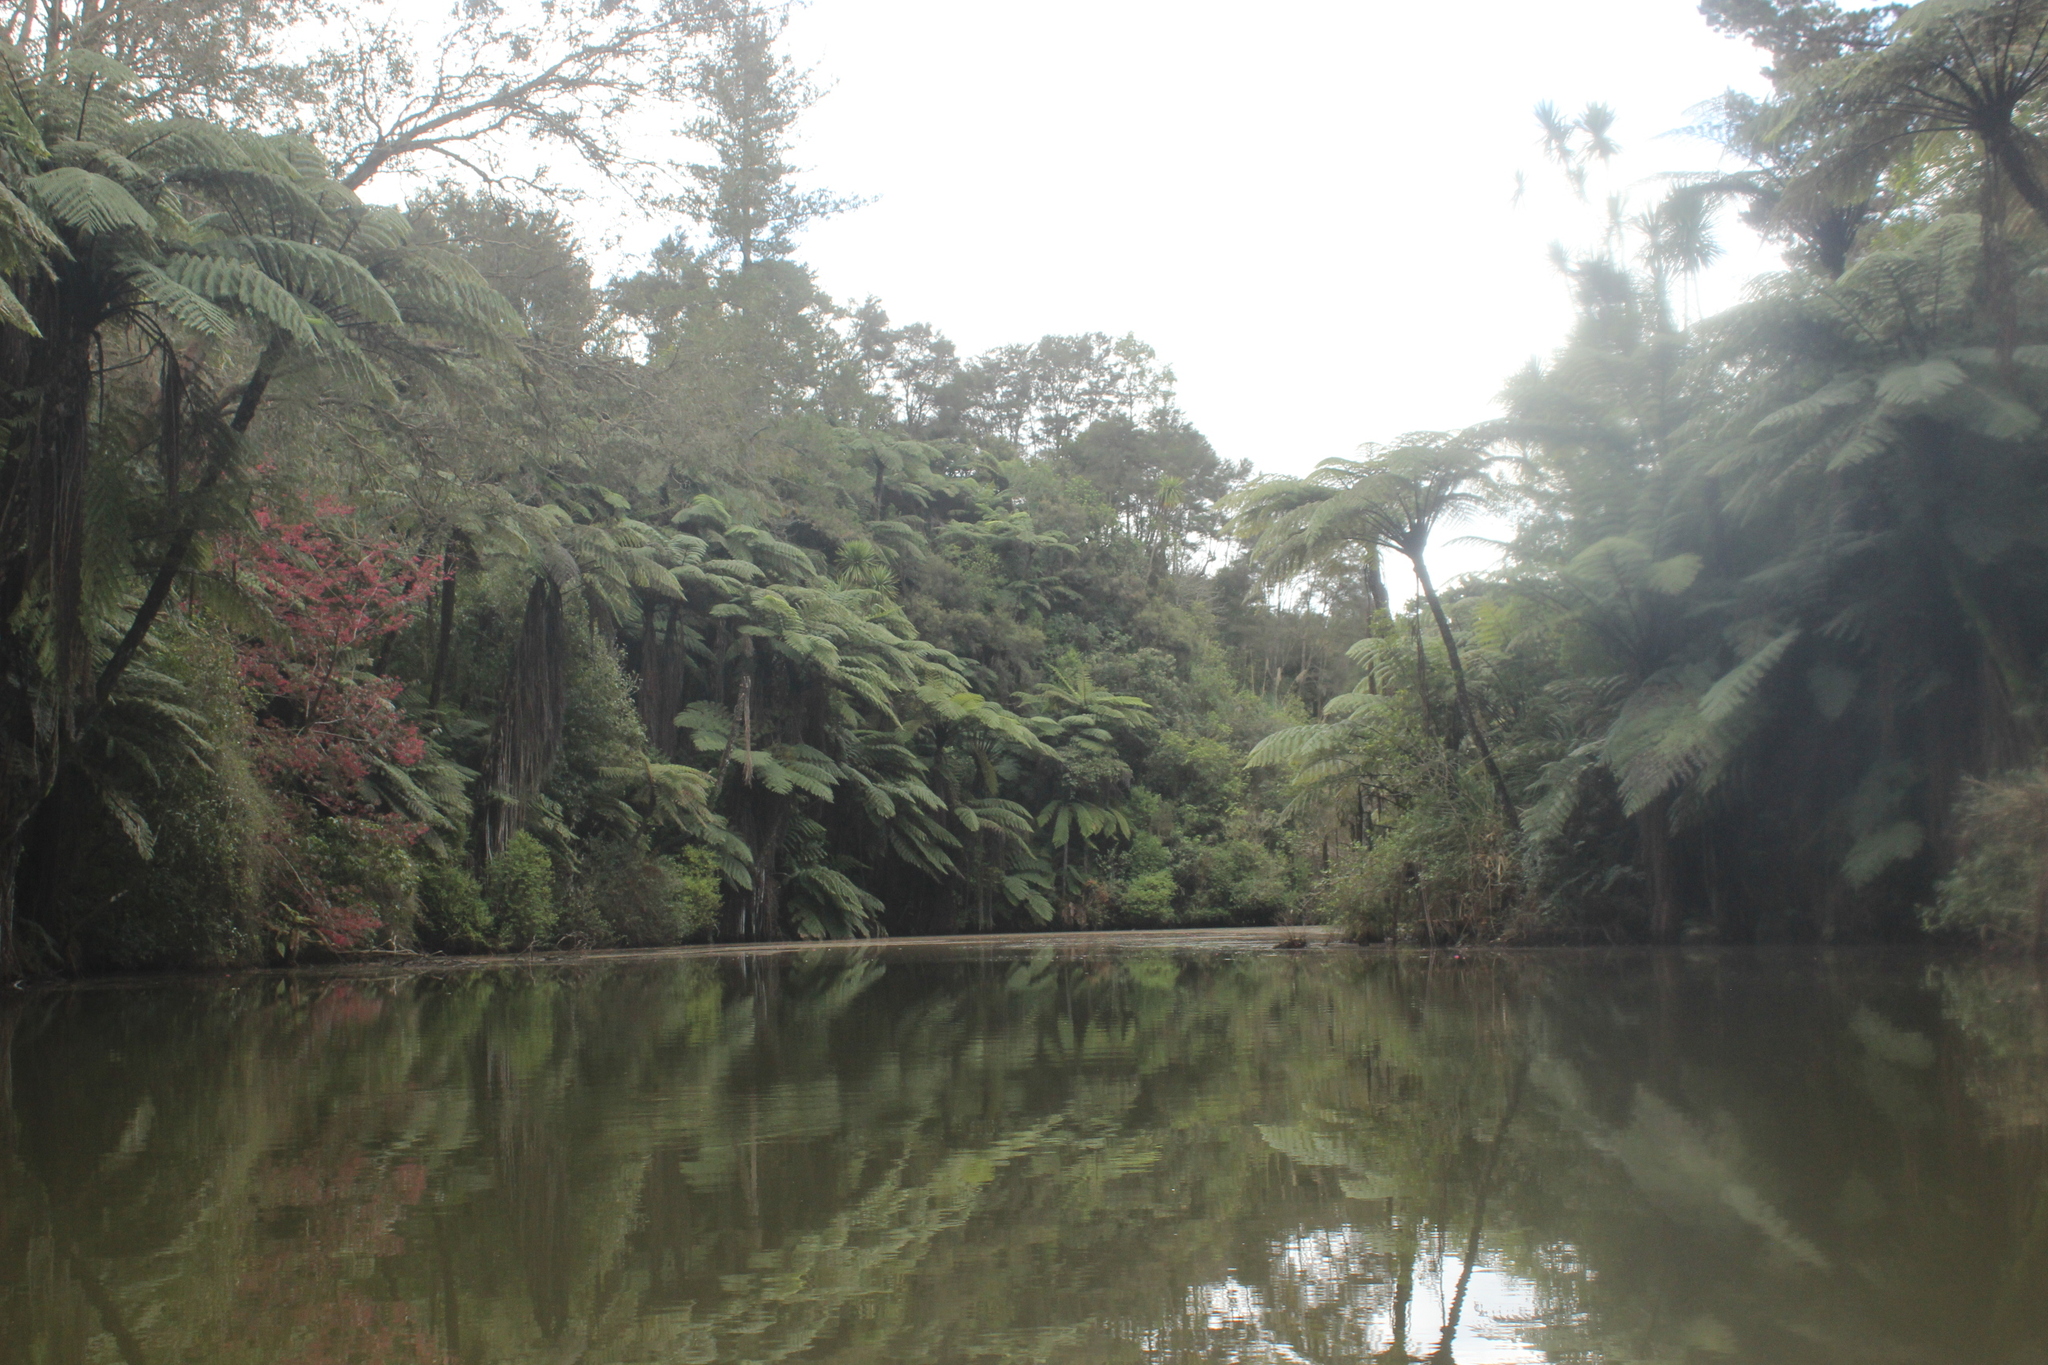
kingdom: Plantae
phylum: Tracheophyta
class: Polypodiopsida
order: Cyatheales
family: Cyatheaceae
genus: Sphaeropteris
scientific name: Sphaeropteris medullaris
